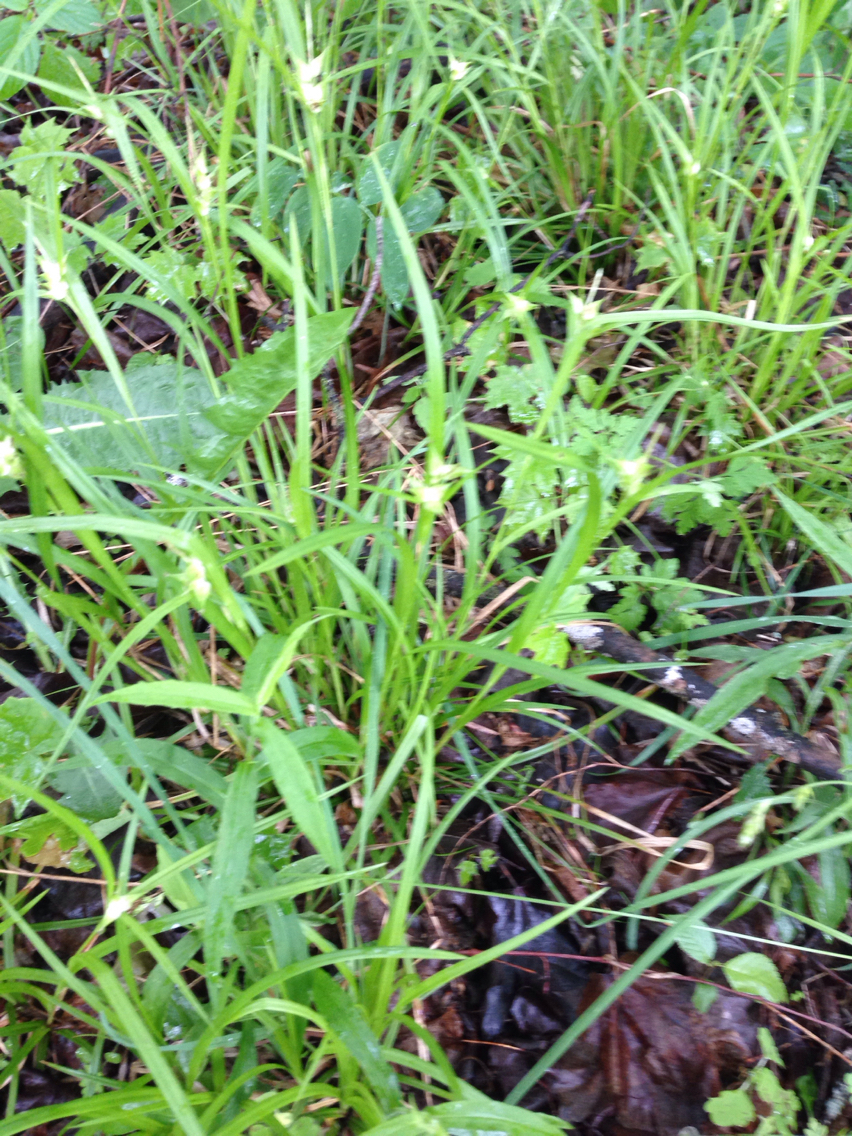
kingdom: Plantae
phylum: Tracheophyta
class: Liliopsida
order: Poales
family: Cyperaceae
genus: Carex
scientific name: Carex intumescens
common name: Greater bladder sedge
